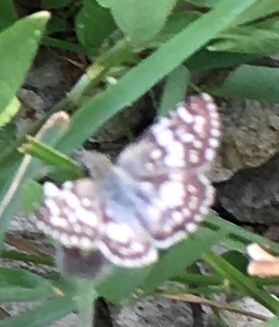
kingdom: Animalia
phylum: Arthropoda
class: Insecta
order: Lepidoptera
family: Hesperiidae
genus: Burnsius
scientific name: Burnsius adepta
